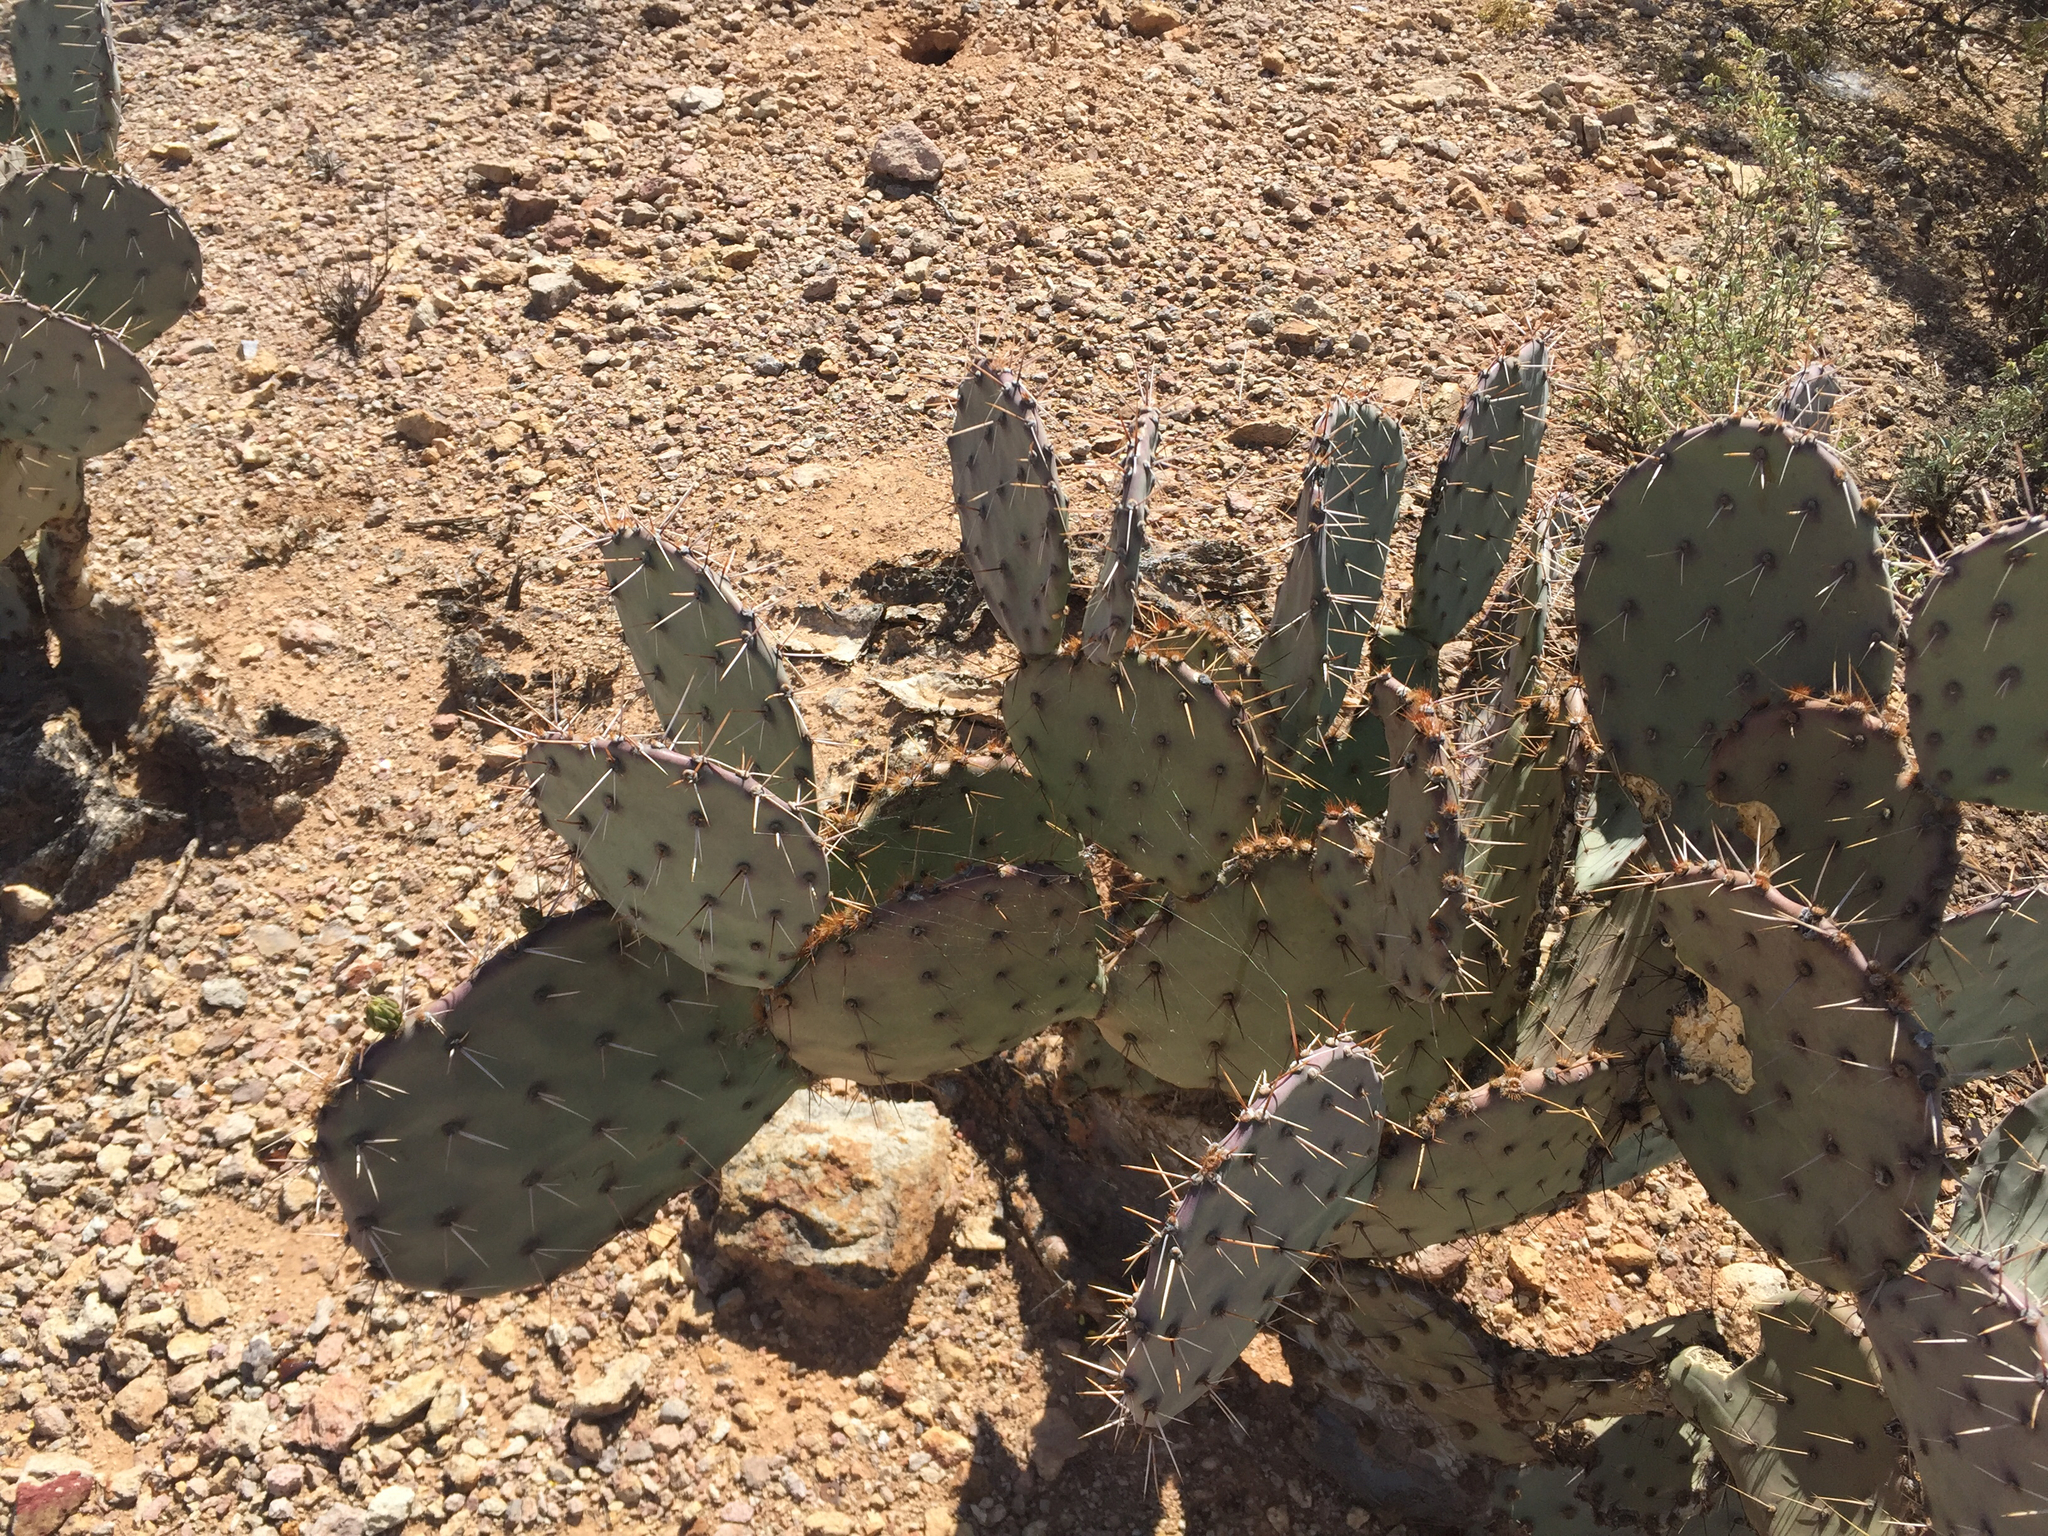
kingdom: Plantae
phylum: Tracheophyta
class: Magnoliopsida
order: Caryophyllales
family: Cactaceae
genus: Opuntia
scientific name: Opuntia phaeacantha
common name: New mexico prickly-pear
